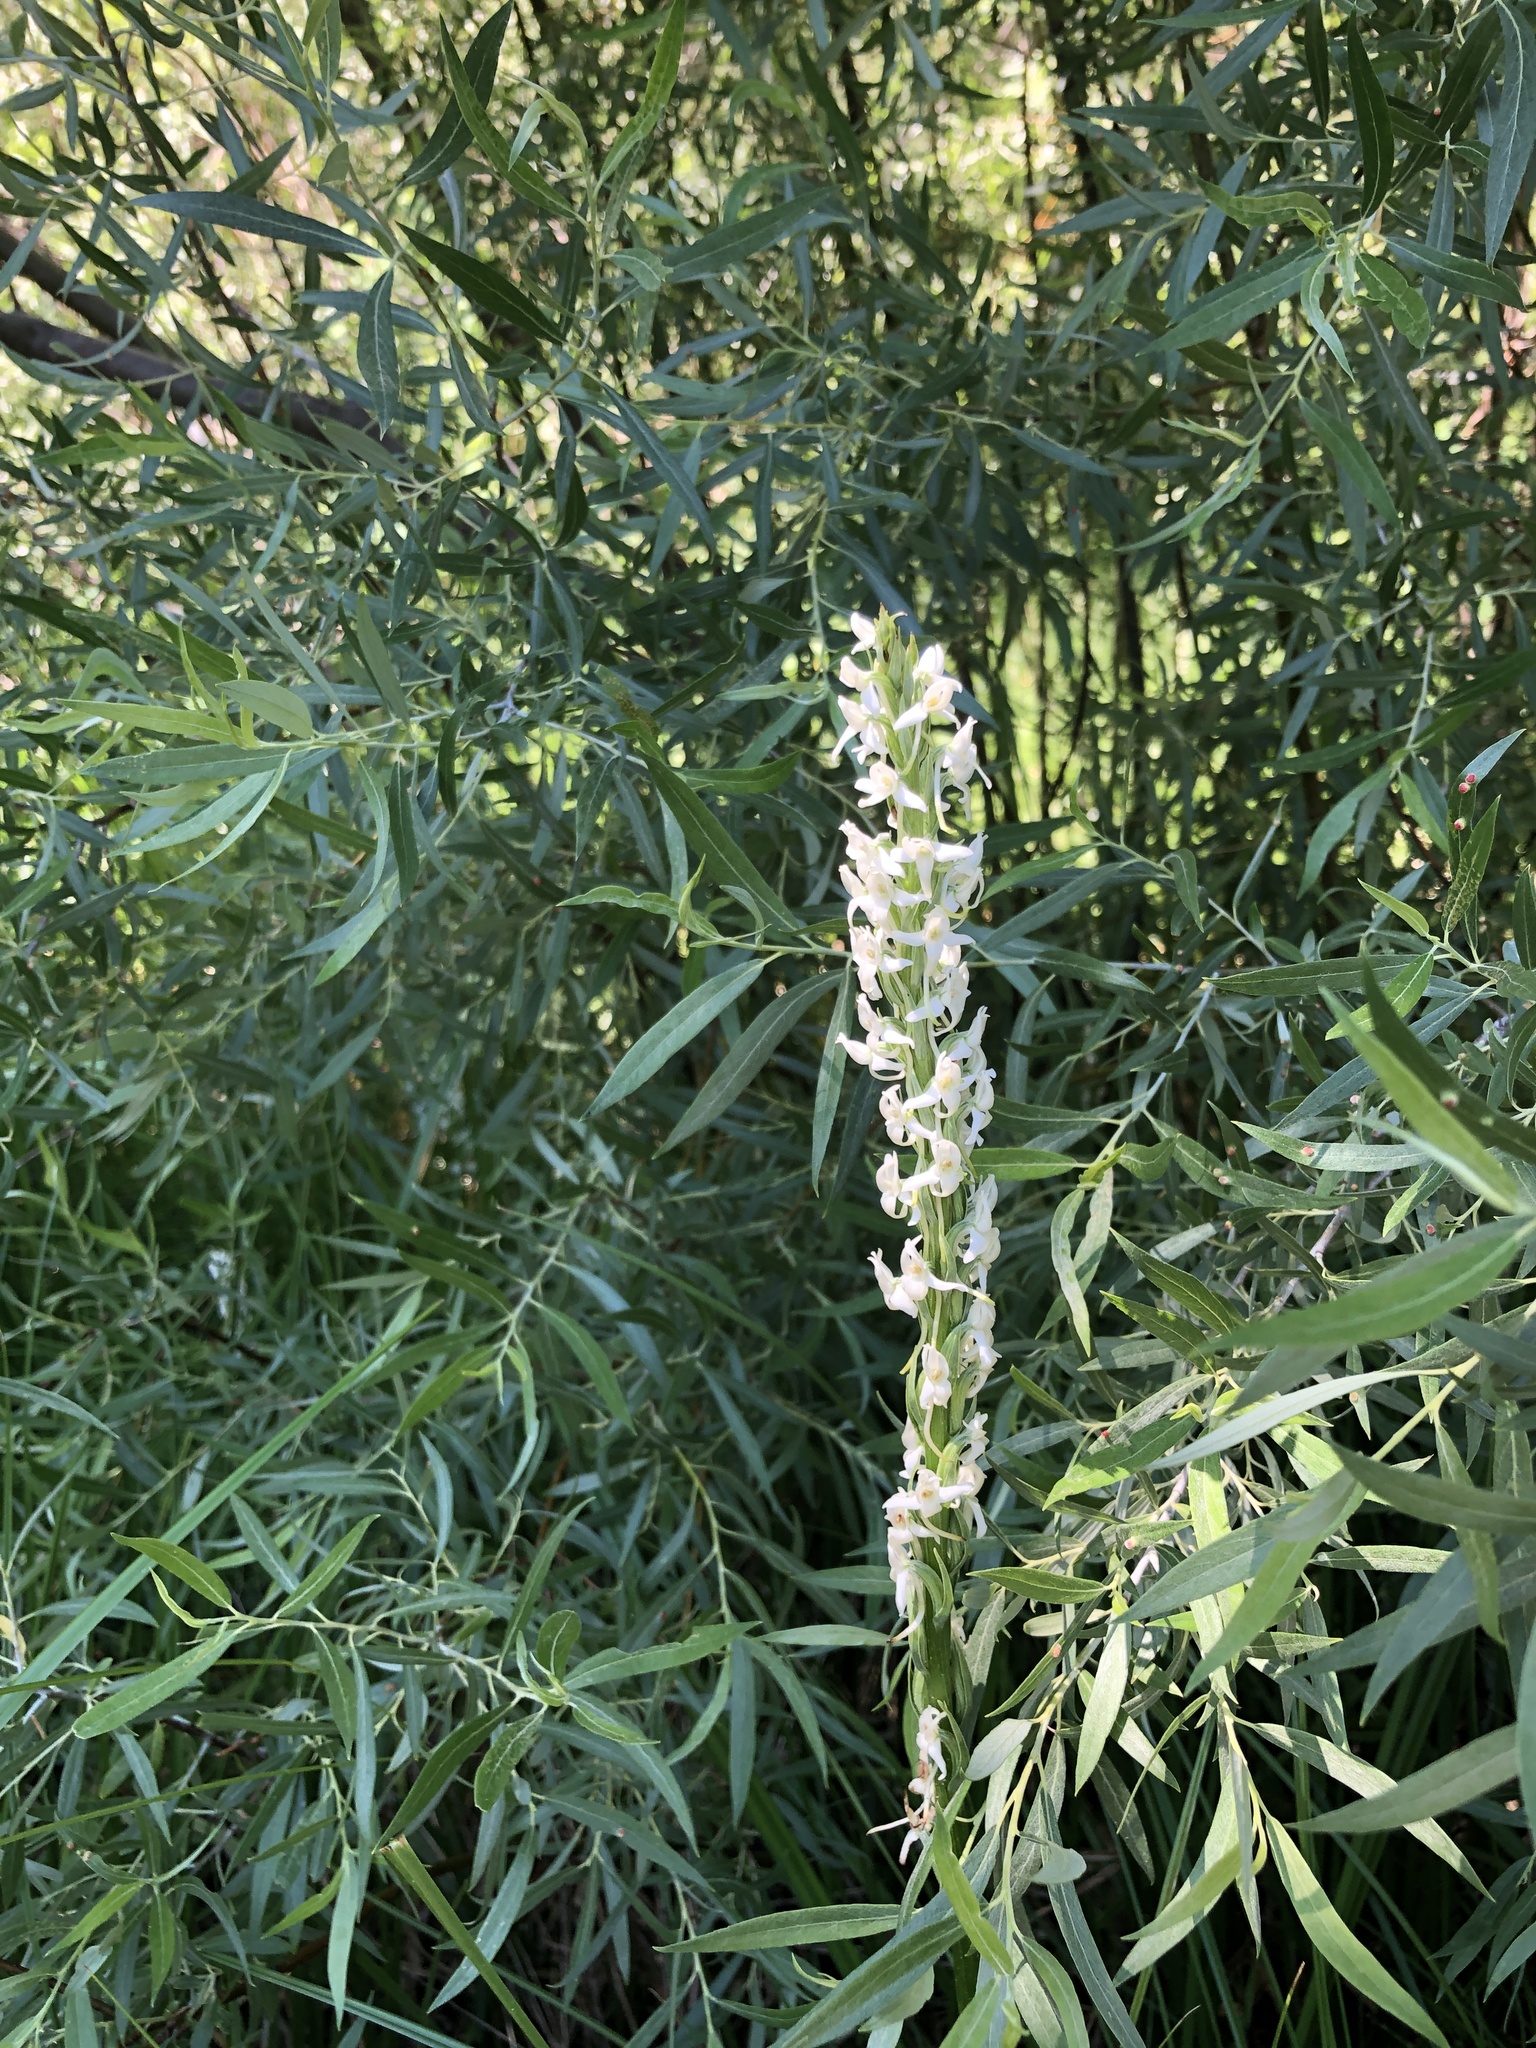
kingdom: Plantae
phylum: Tracheophyta
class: Liliopsida
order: Asparagales
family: Orchidaceae
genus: Platanthera
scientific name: Platanthera dilatata
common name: Bog candles
